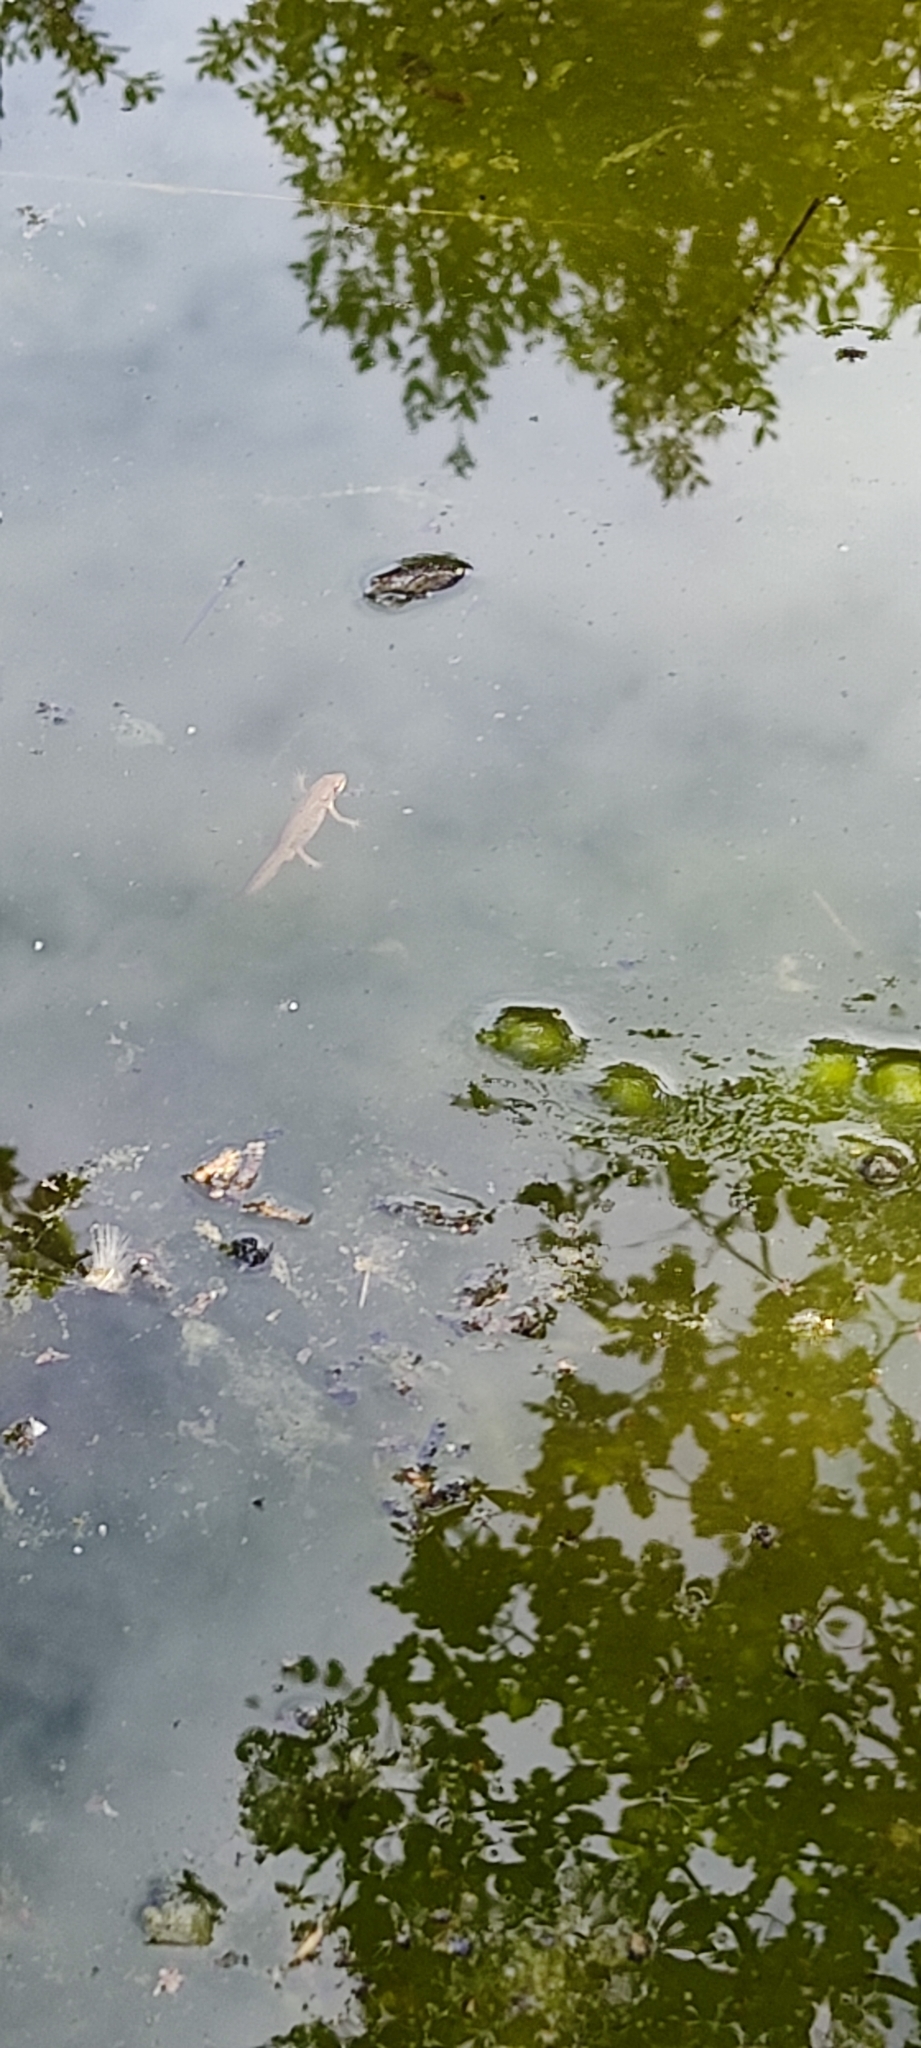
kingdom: Animalia
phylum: Chordata
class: Amphibia
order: Caudata
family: Salamandridae
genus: Lissotriton
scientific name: Lissotriton helveticus
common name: Palmate newt
